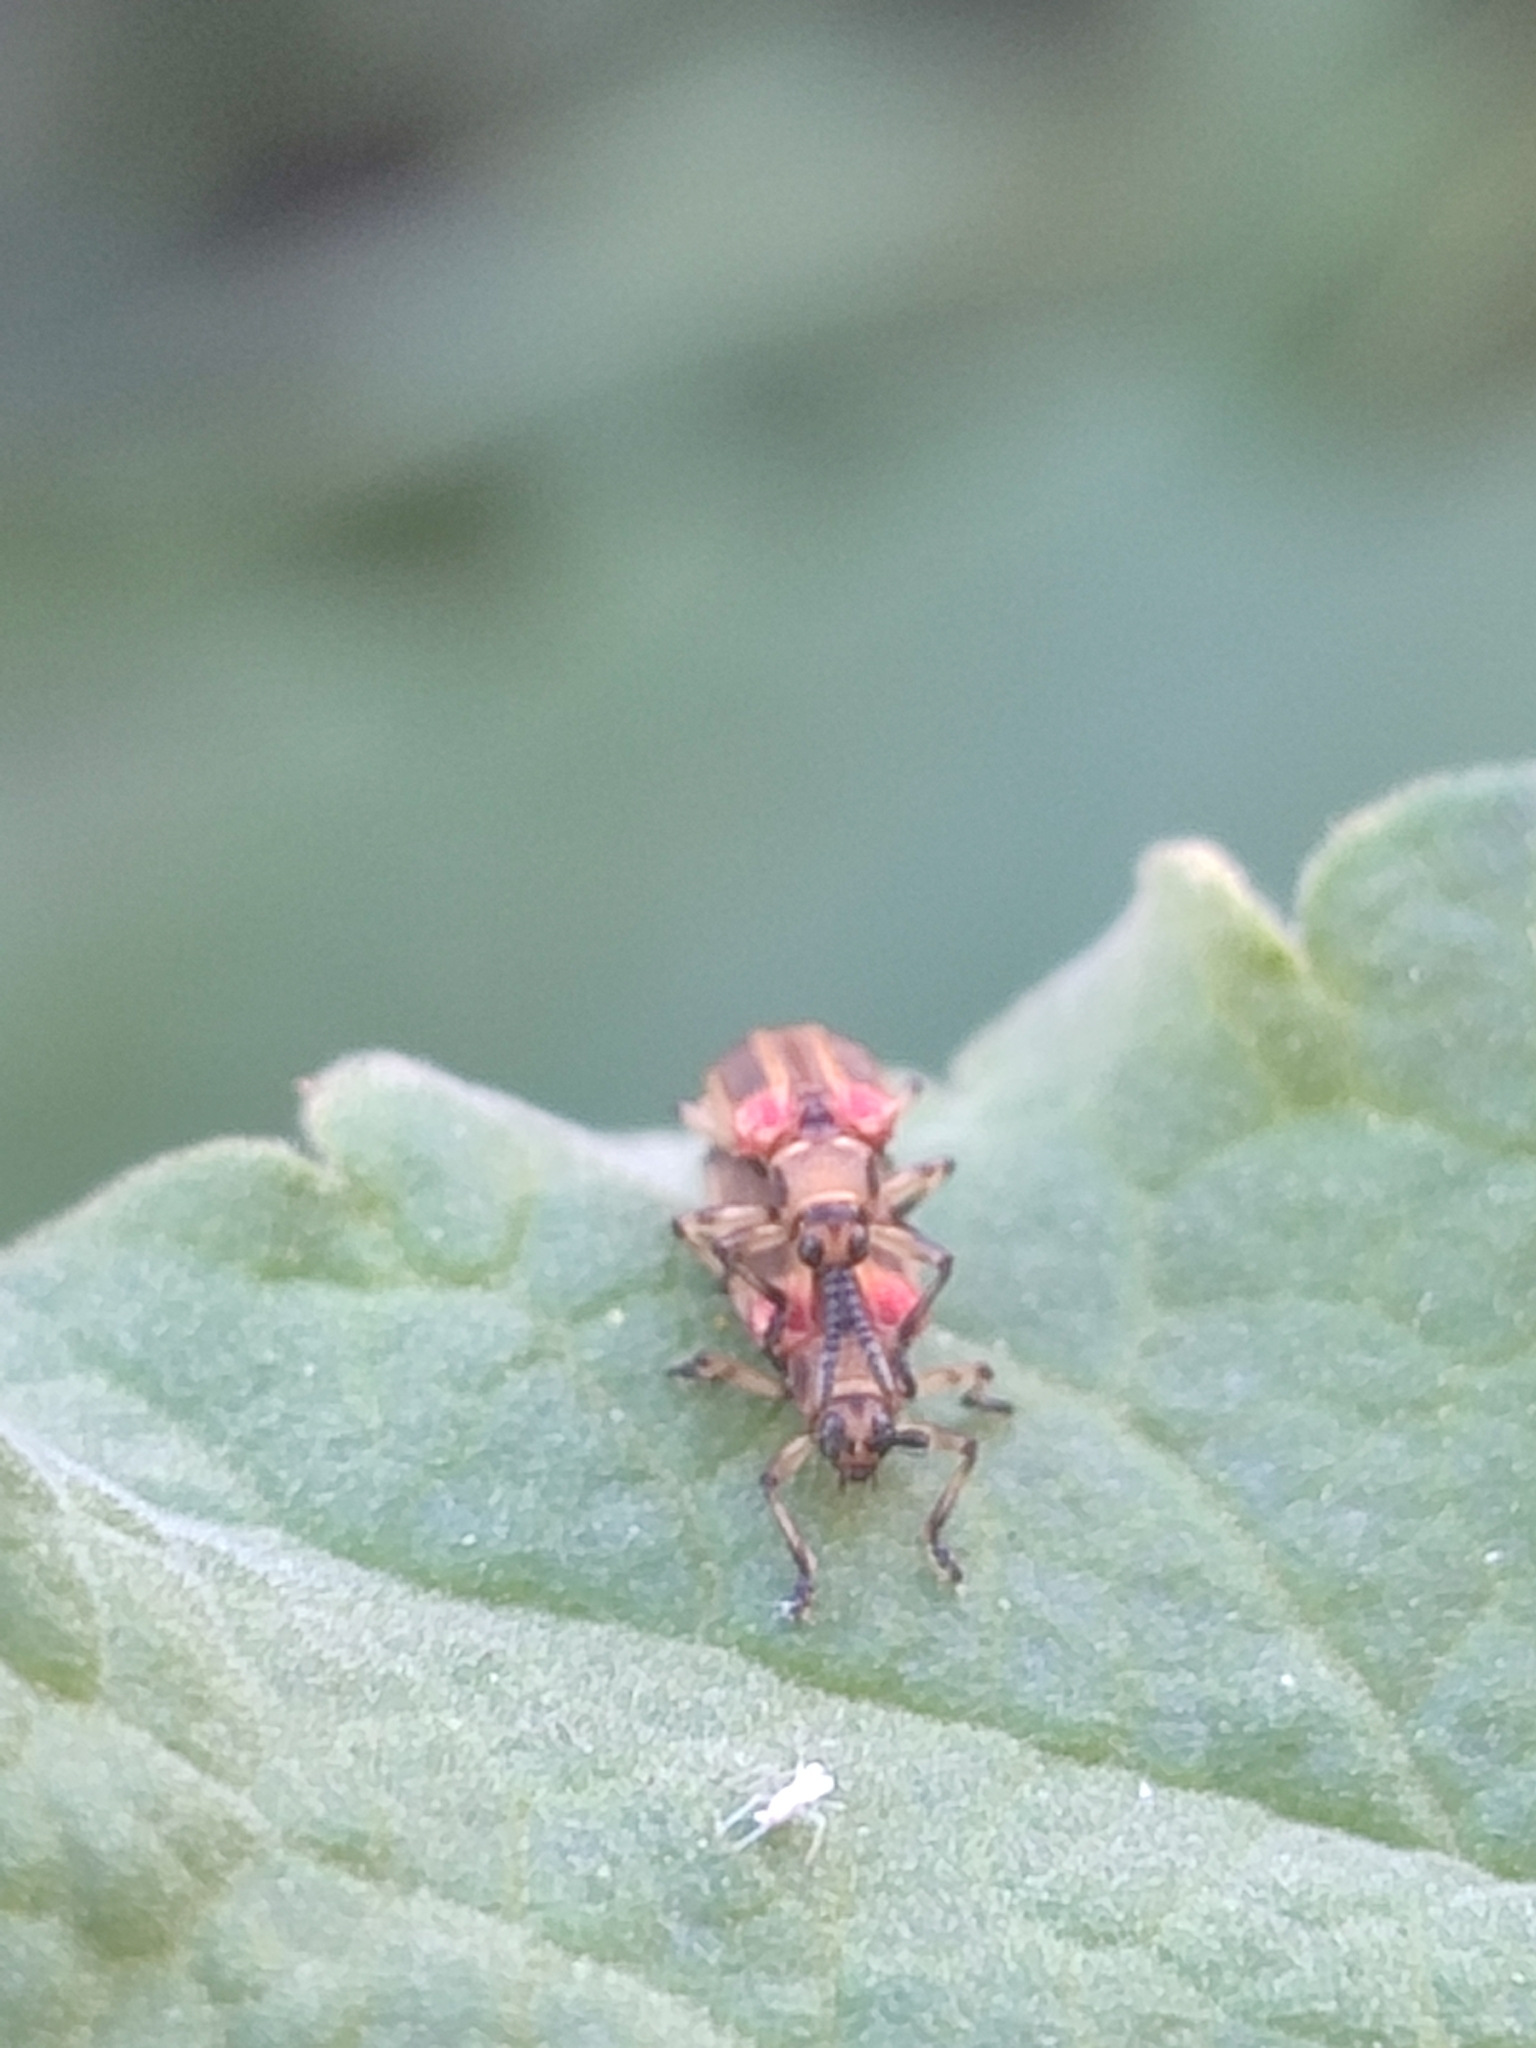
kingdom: Animalia
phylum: Arthropoda
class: Insecta
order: Coleoptera
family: Chrysomelidae
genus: Heterispa
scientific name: Heterispa costipennis
